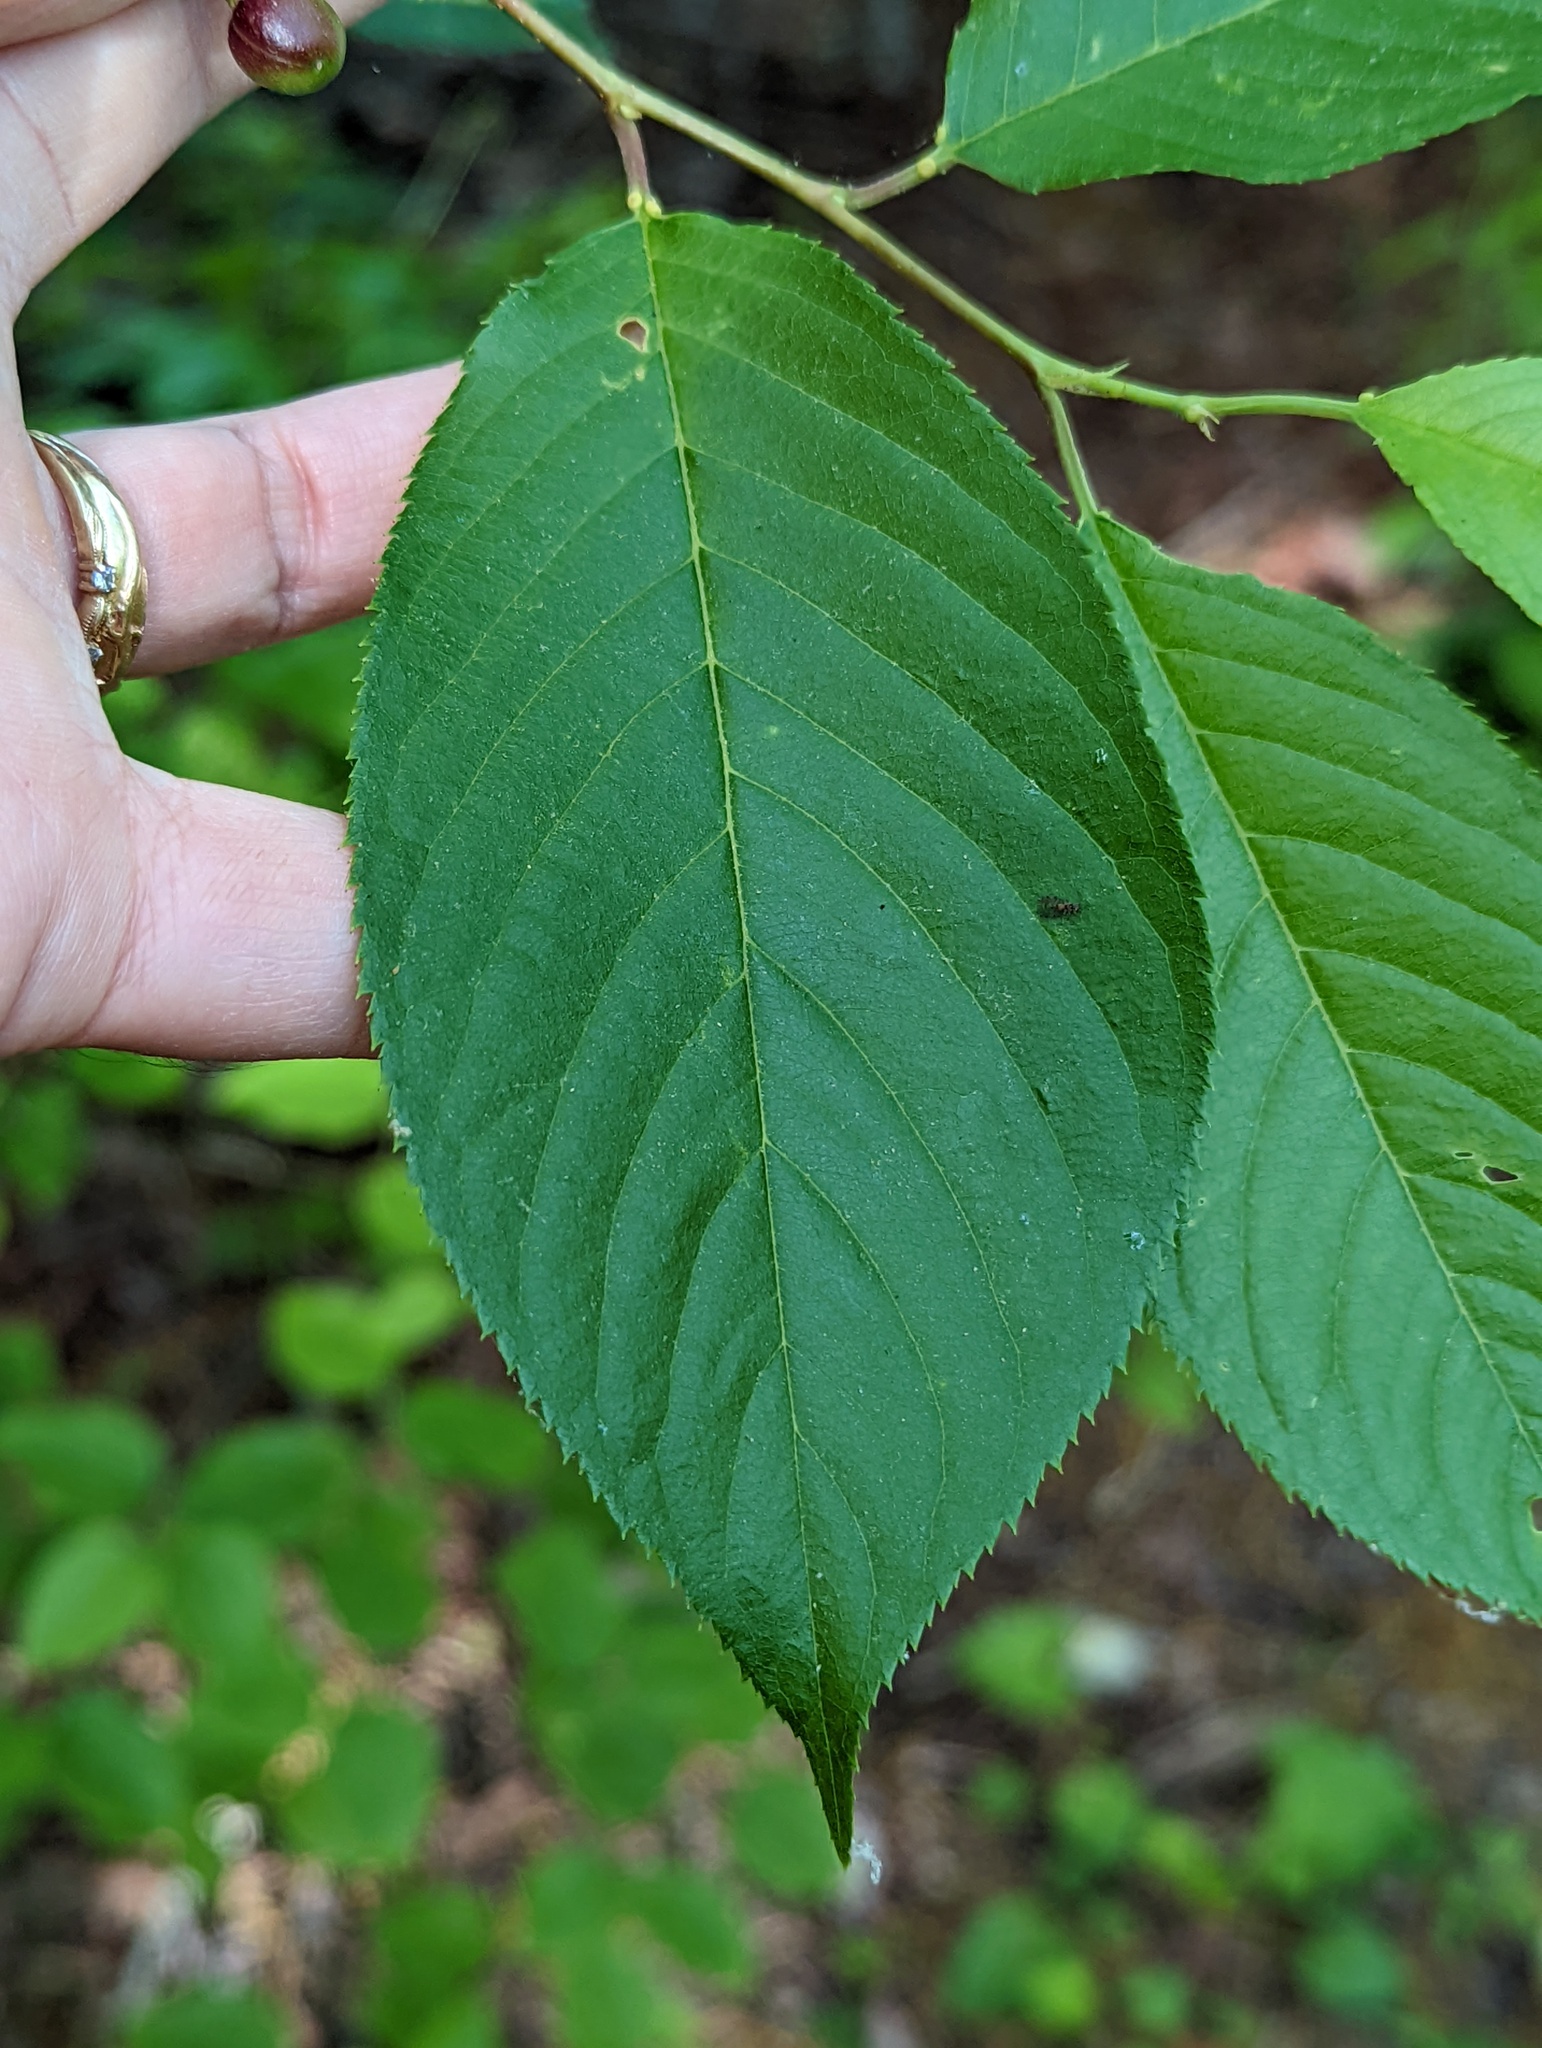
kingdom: Plantae
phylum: Tracheophyta
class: Magnoliopsida
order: Rosales
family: Rosaceae
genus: Prunus
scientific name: Prunus serotina
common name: Black cherry
